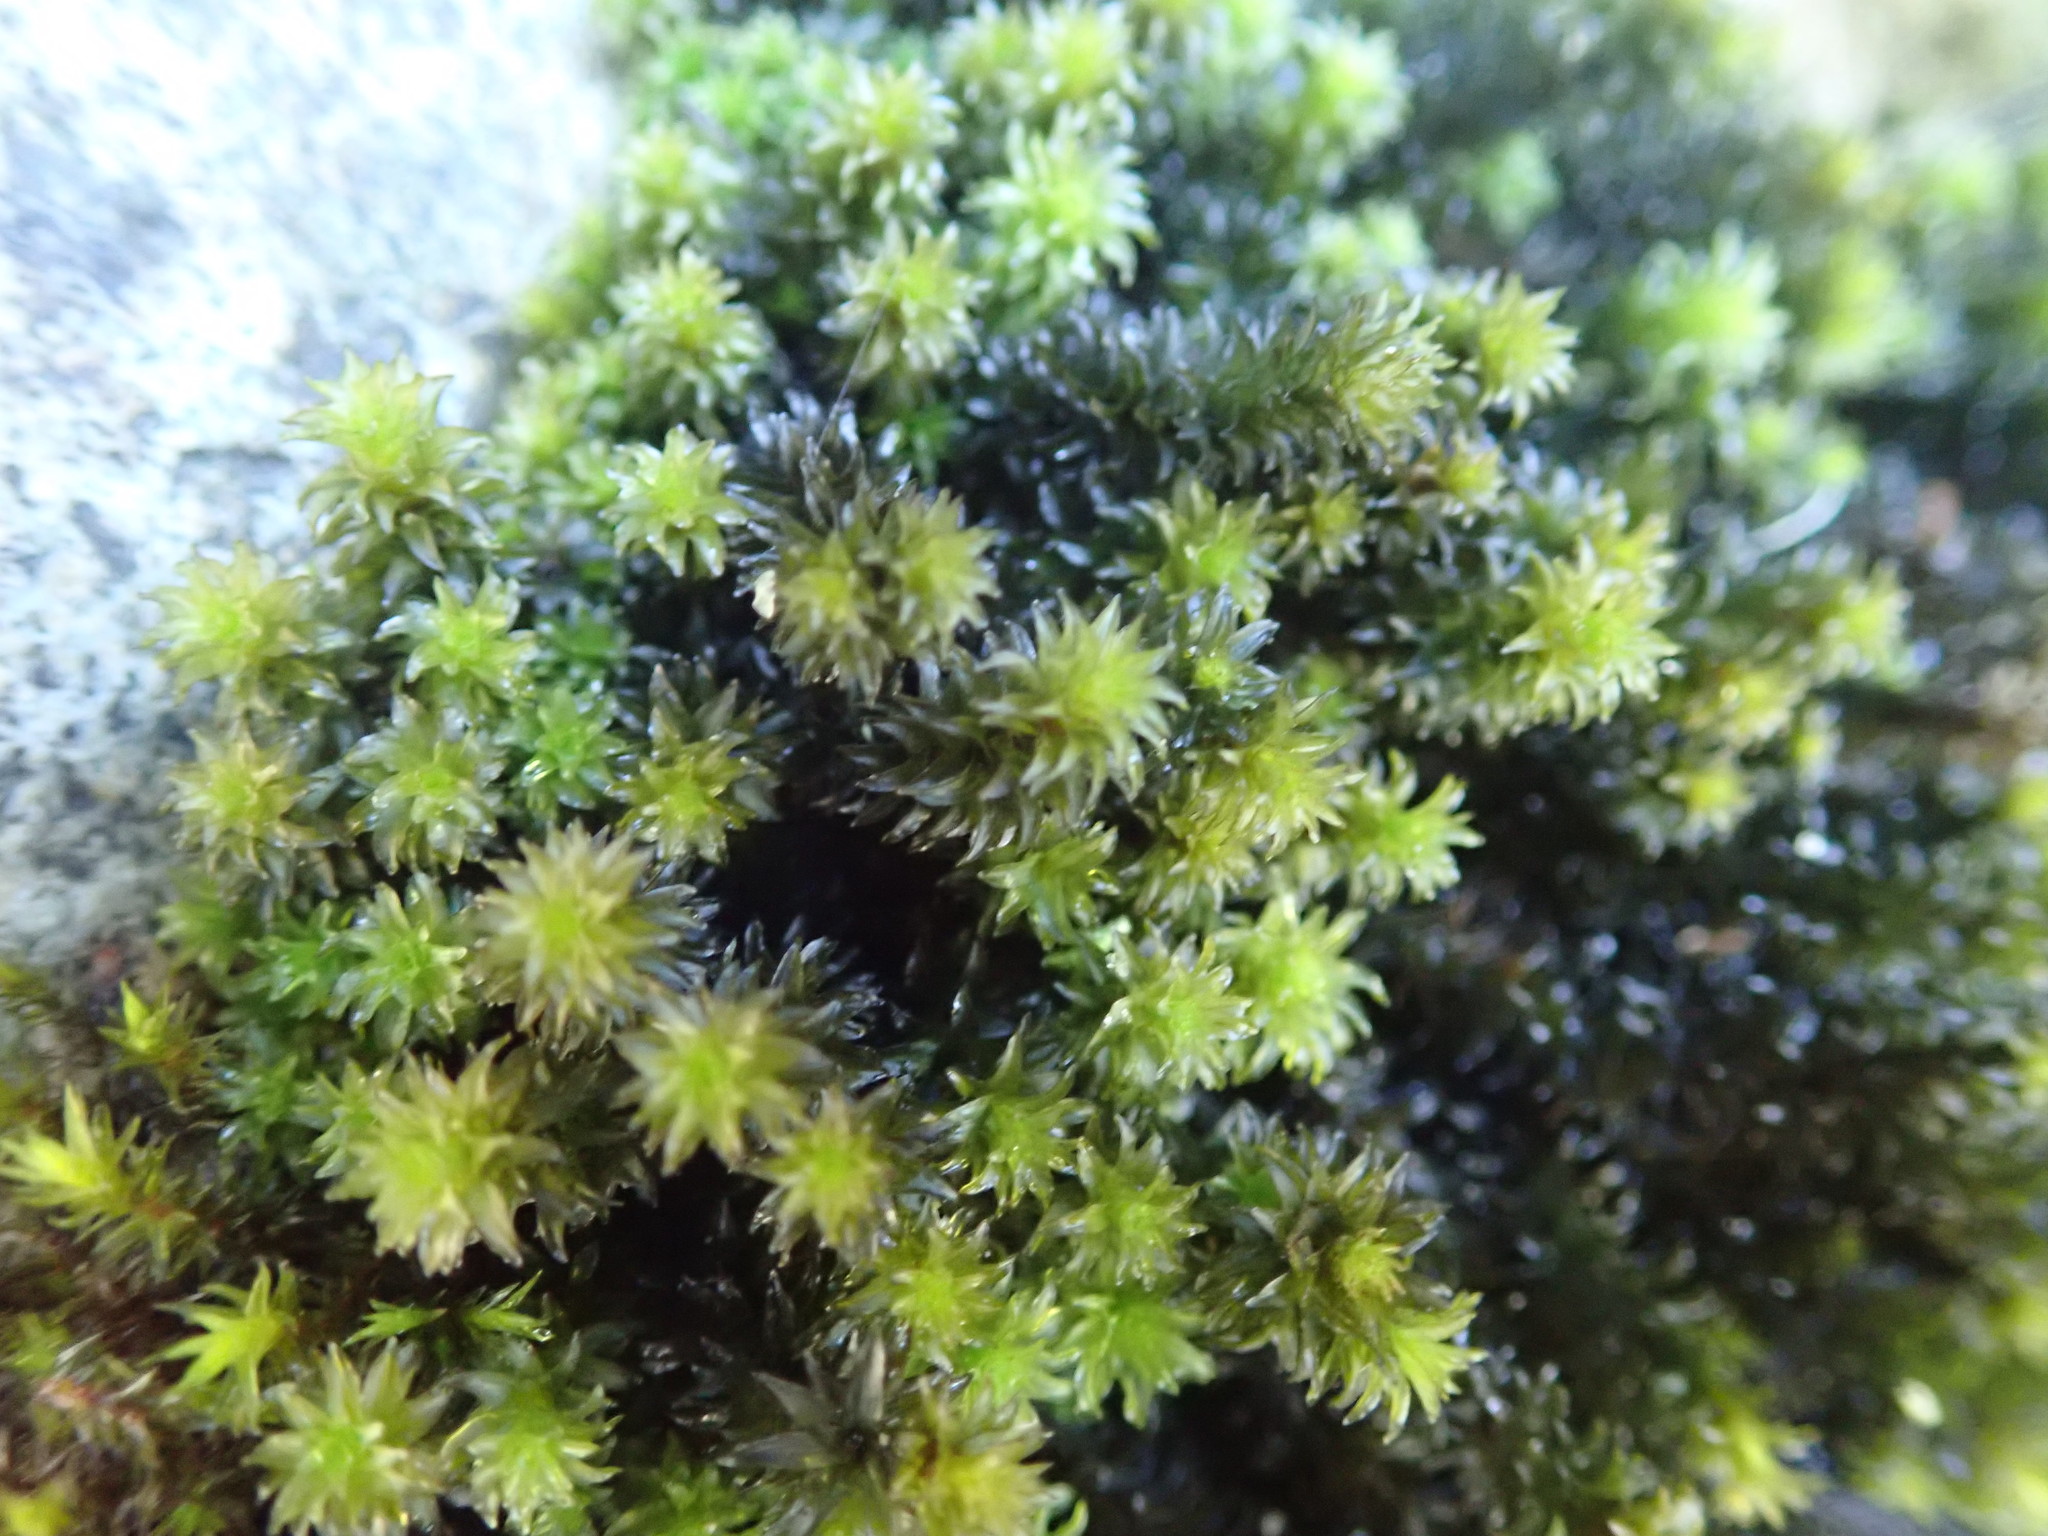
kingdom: Plantae
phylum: Bryophyta
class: Bryopsida
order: Scouleriales
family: Scouleriaceae
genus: Scouleria
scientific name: Scouleria aquatica
